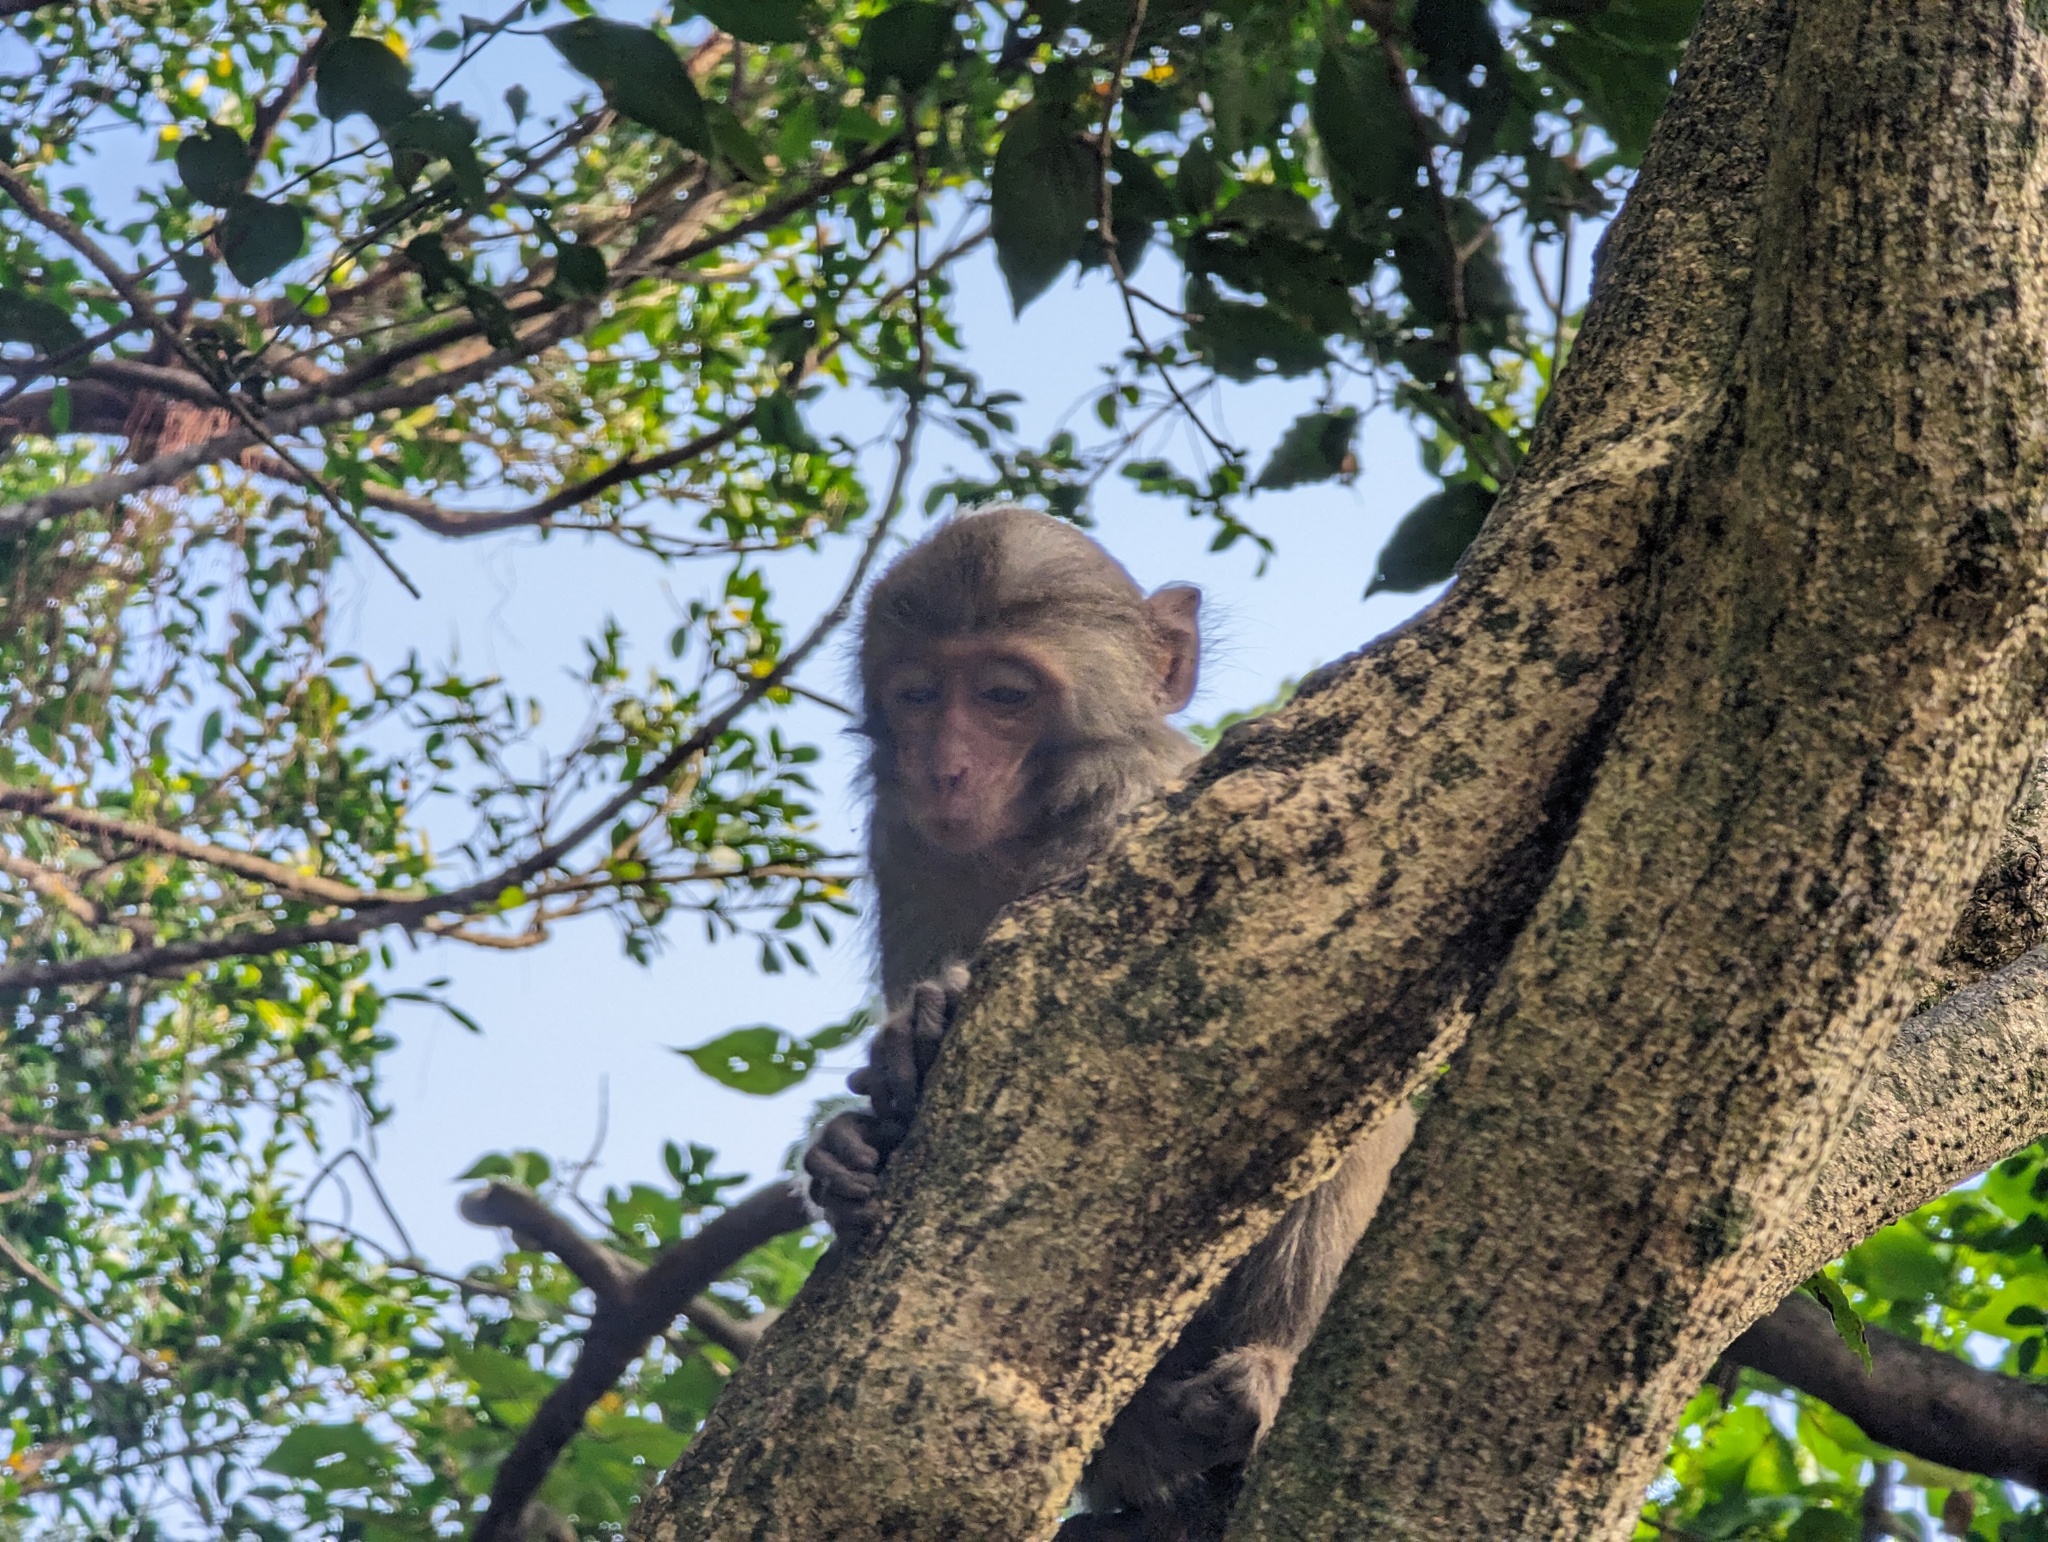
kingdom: Animalia
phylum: Chordata
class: Mammalia
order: Primates
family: Cercopithecidae
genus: Macaca
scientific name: Macaca cyclopis
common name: Formosan rock macaque
